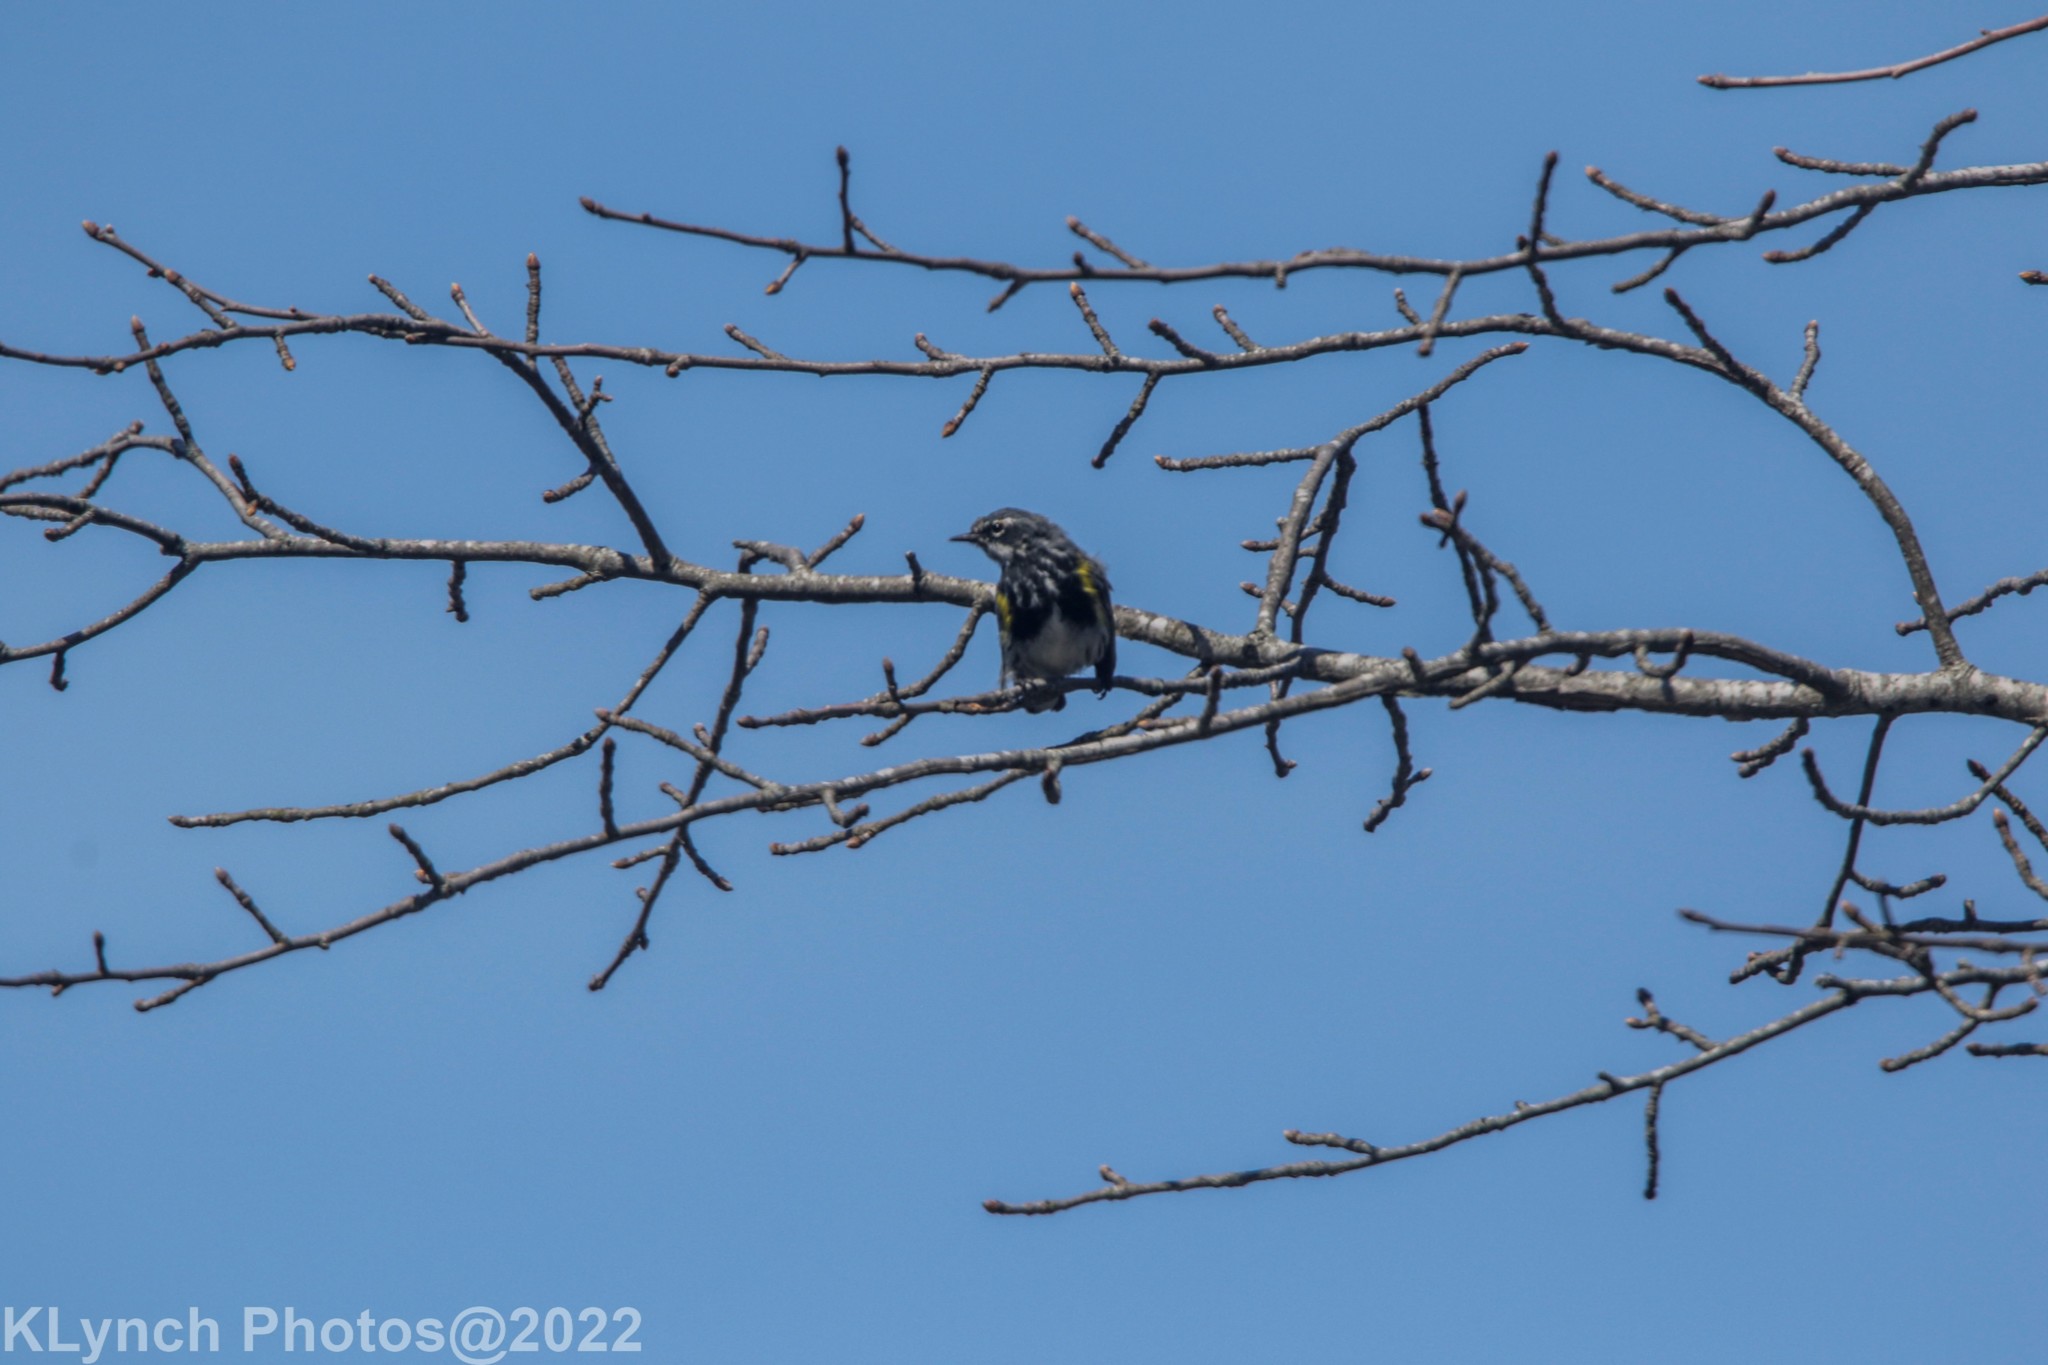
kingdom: Animalia
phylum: Chordata
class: Aves
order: Passeriformes
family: Parulidae
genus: Setophaga
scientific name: Setophaga coronata
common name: Myrtle warbler
